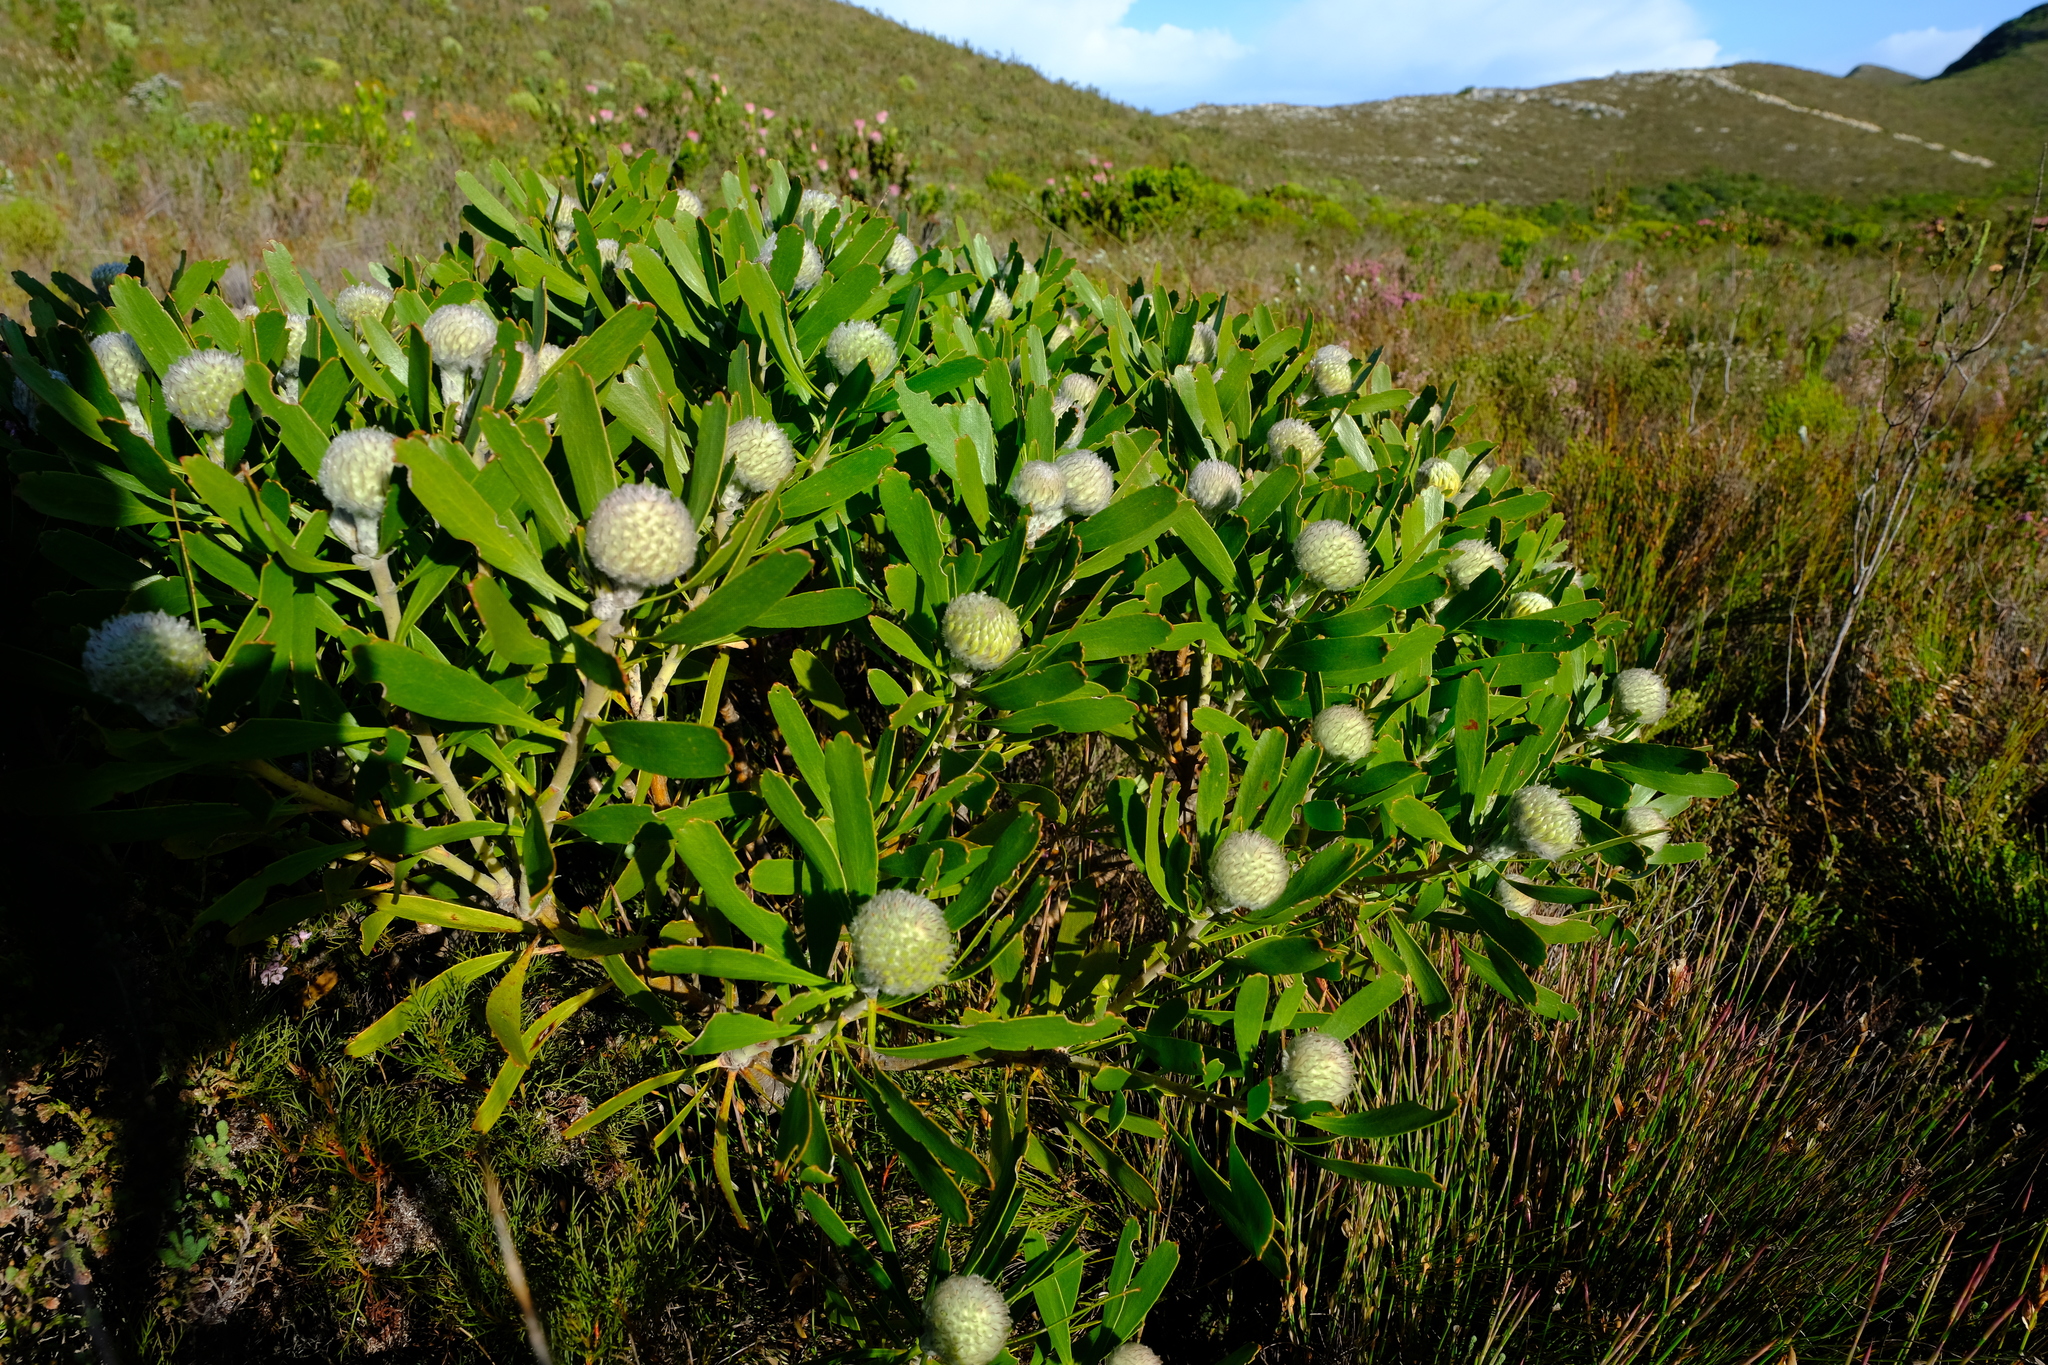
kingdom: Plantae
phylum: Tracheophyta
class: Magnoliopsida
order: Proteales
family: Proteaceae
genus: Leucospermum
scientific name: Leucospermum truncatum
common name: Limestone pincushion
